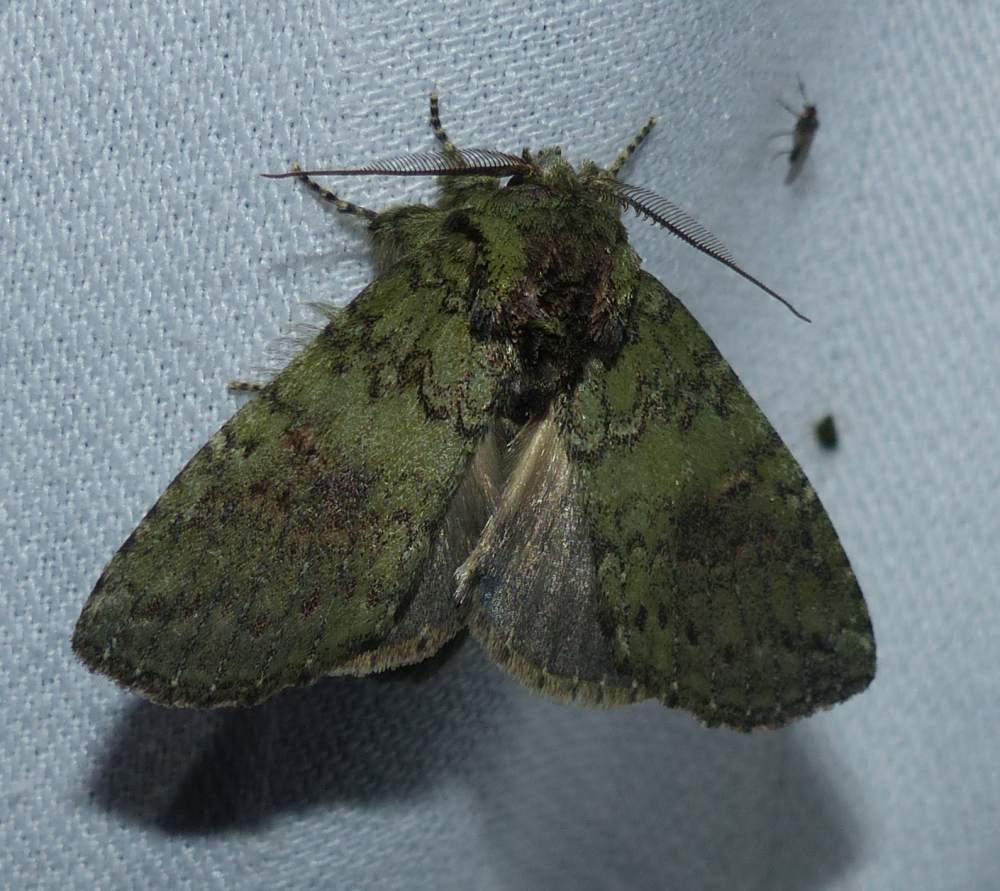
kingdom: Animalia
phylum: Arthropoda
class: Insecta
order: Lepidoptera
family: Notodontidae
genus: Disphragis
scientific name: Disphragis Cecrita biundata
